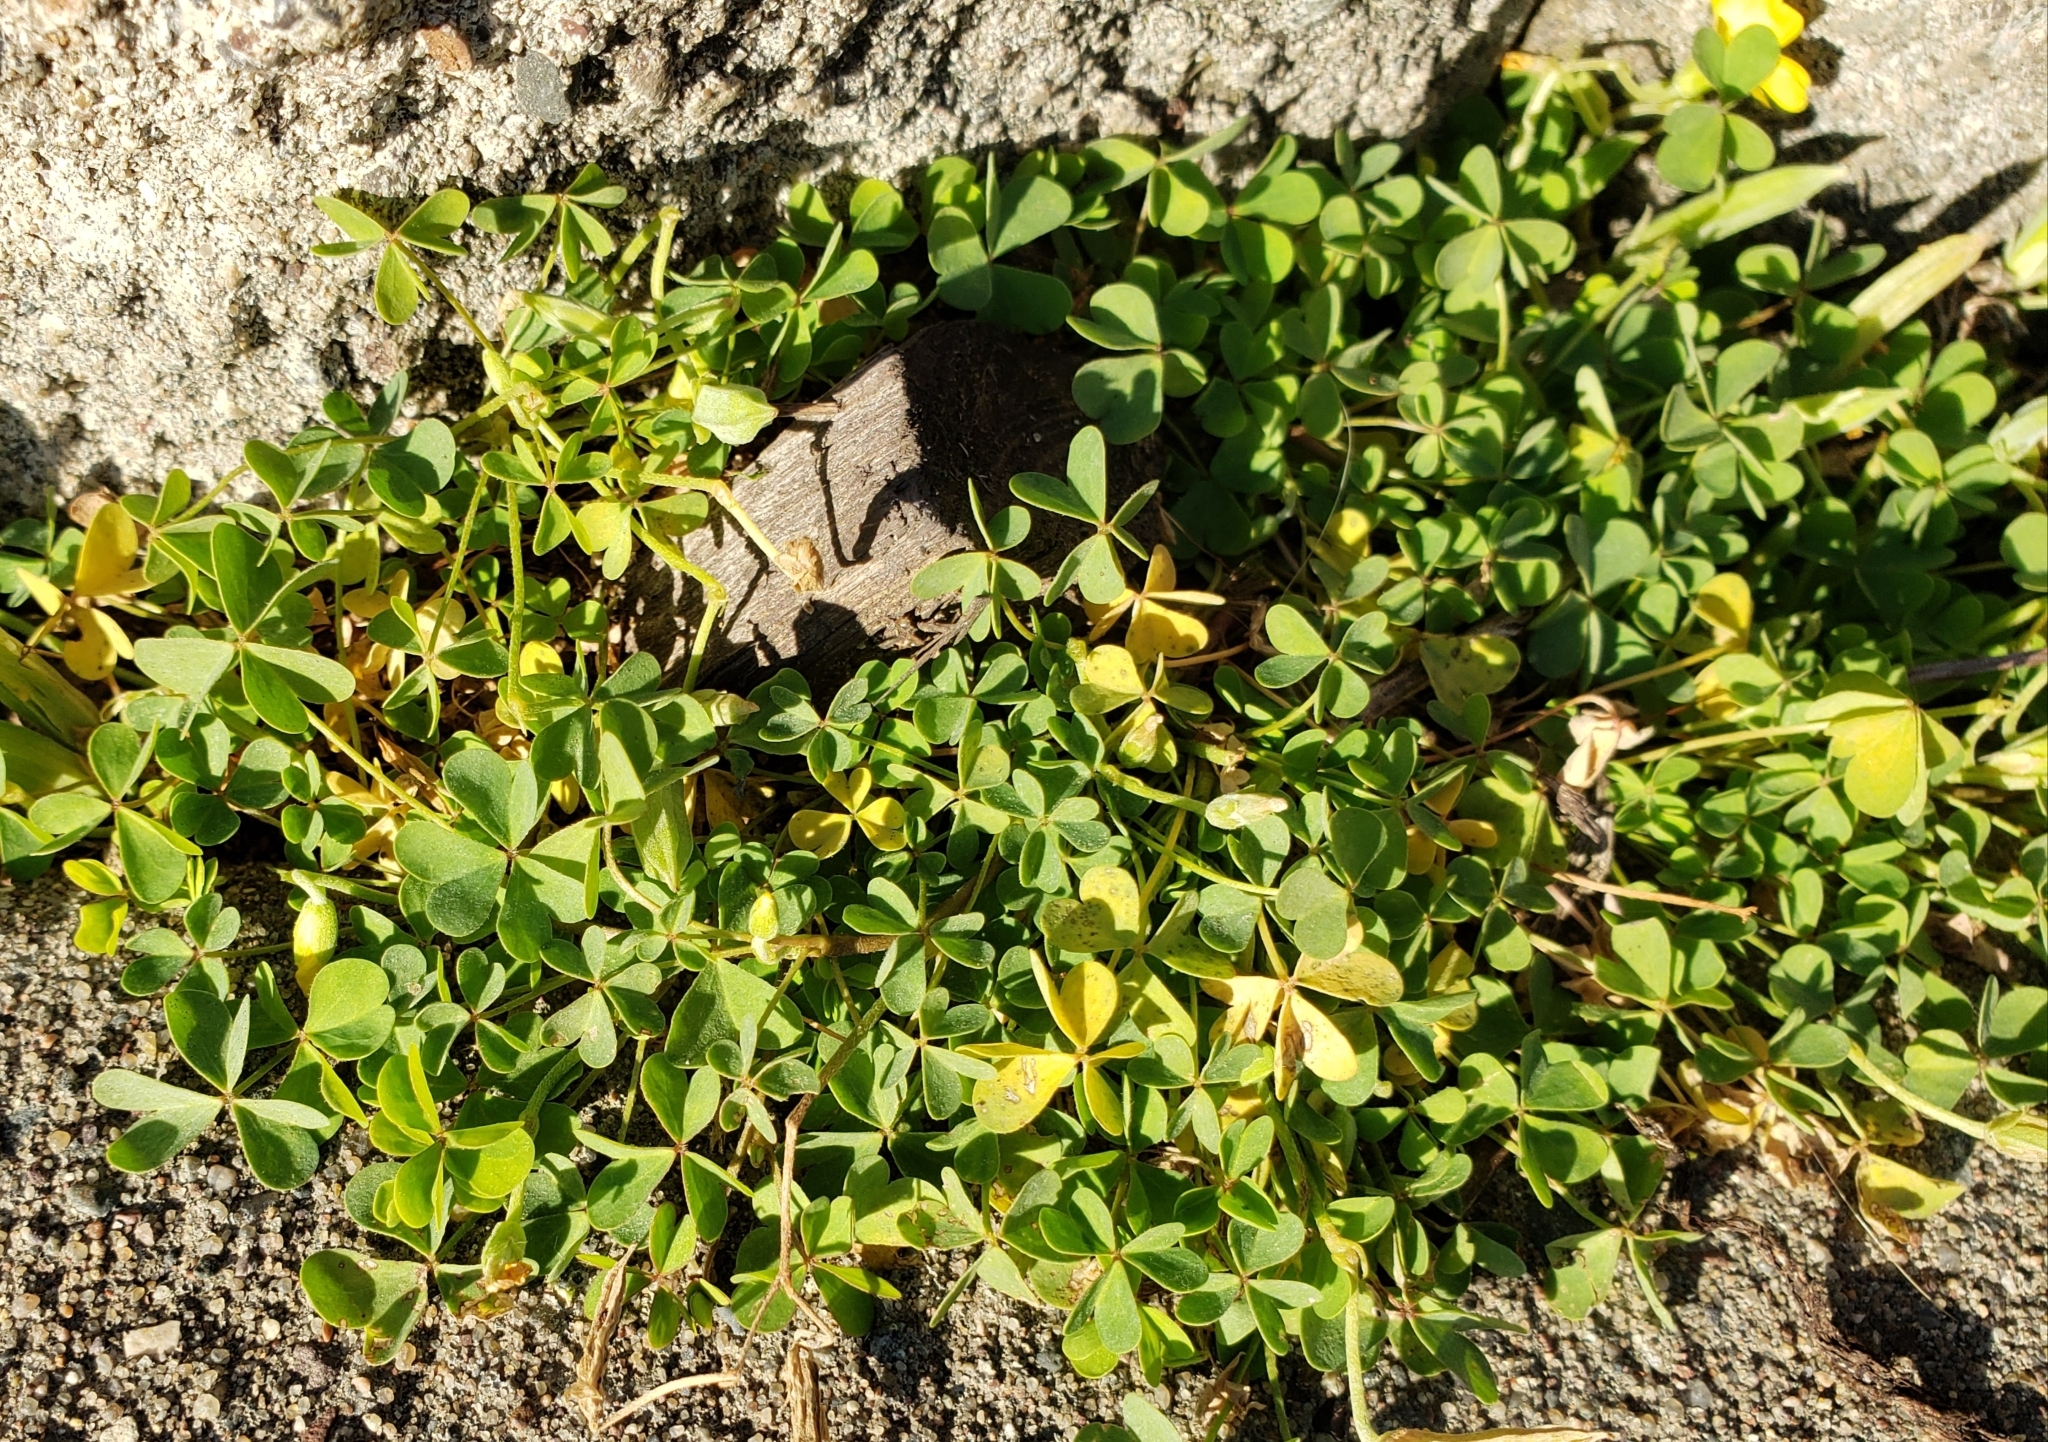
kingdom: Plantae
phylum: Tracheophyta
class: Magnoliopsida
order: Oxalidales
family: Oxalidaceae
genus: Oxalis
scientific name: Oxalis corniculata
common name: Procumbent yellow-sorrel
